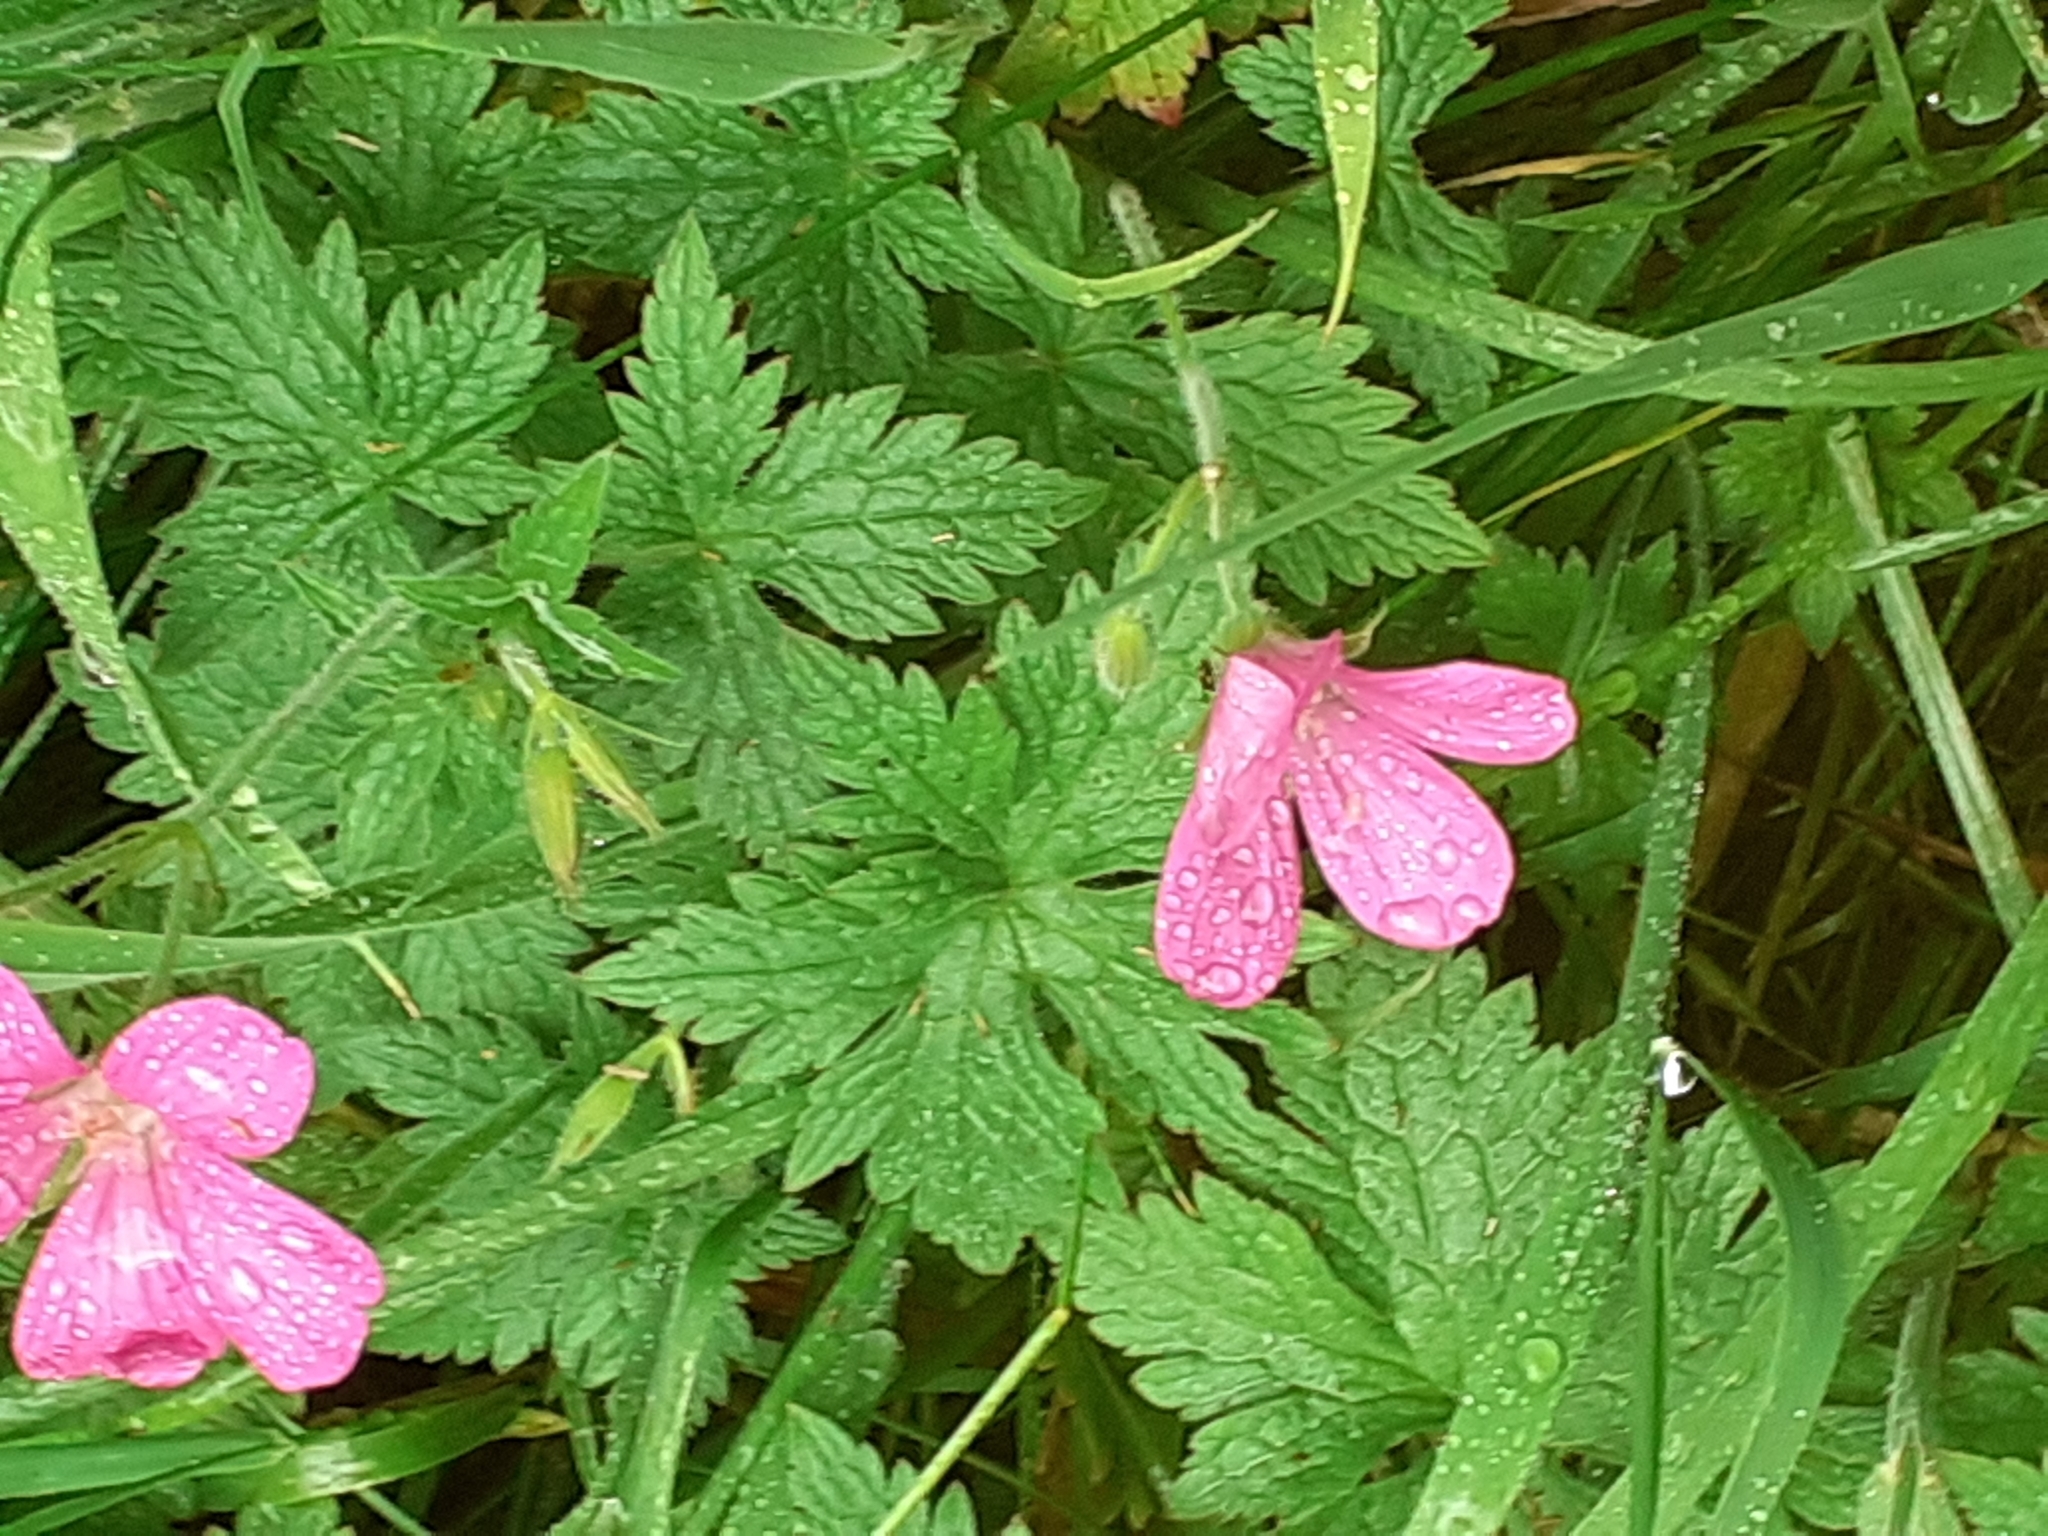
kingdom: Plantae
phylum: Tracheophyta
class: Magnoliopsida
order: Geraniales
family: Geraniaceae
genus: Geranium
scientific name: Geranium oxonianum
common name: Druce's crane's-bill
